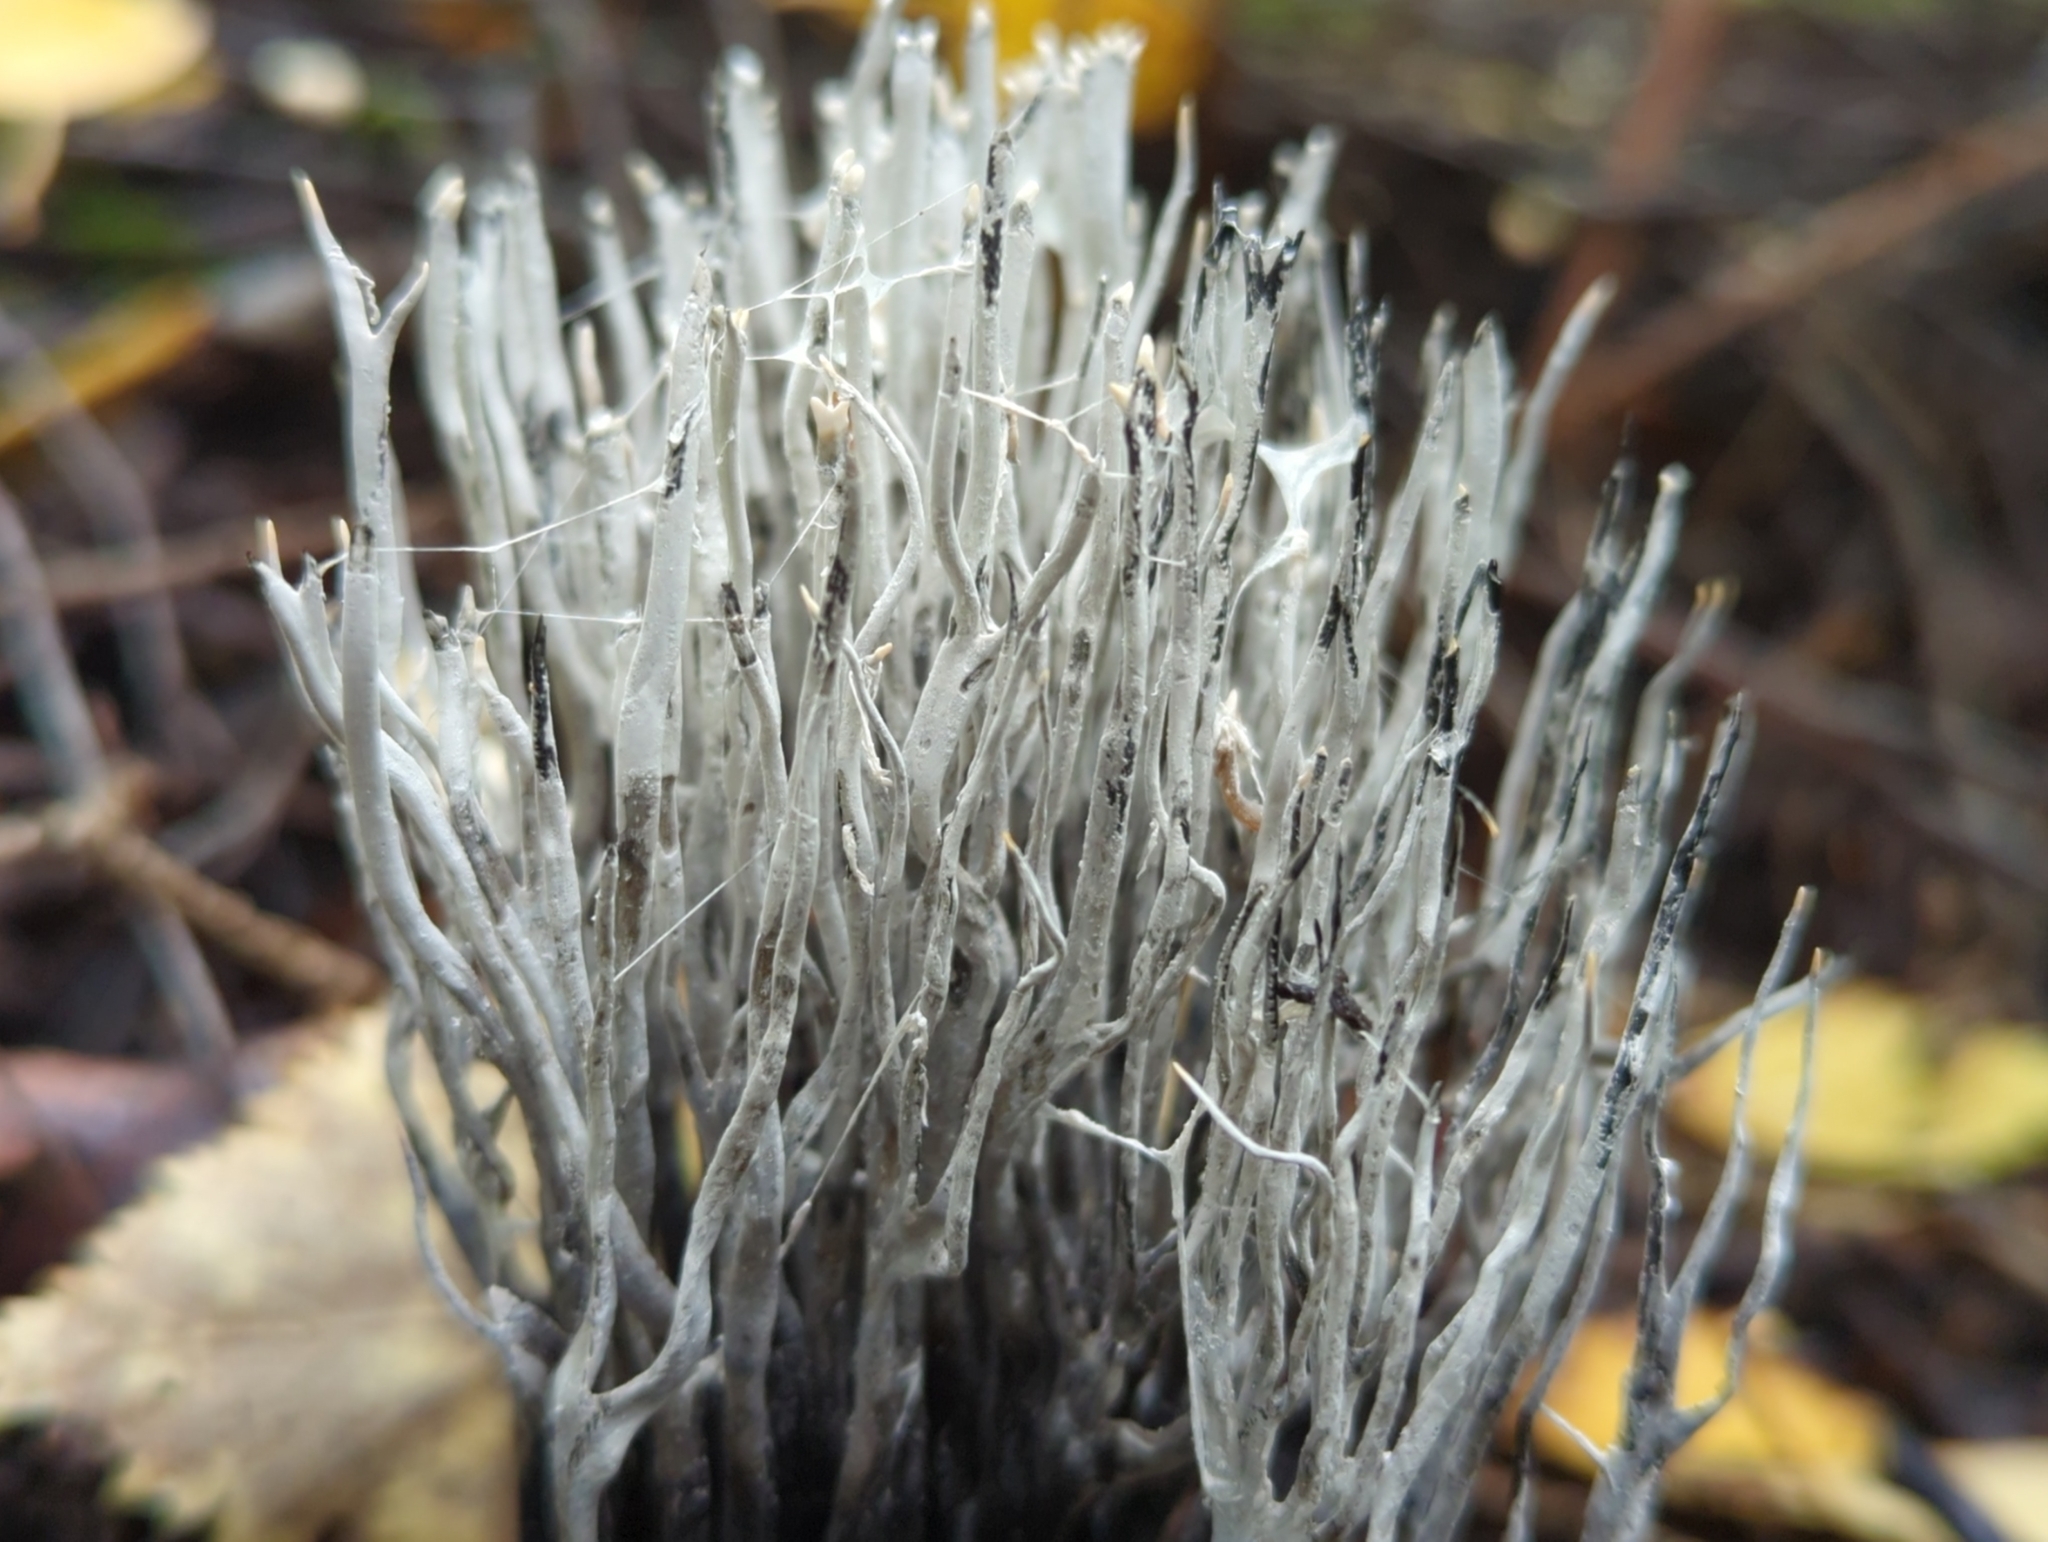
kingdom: Fungi
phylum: Ascomycota
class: Sordariomycetes
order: Xylariales
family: Xylariaceae
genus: Xylaria
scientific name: Xylaria hypoxylon
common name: Candle-snuff fungus
